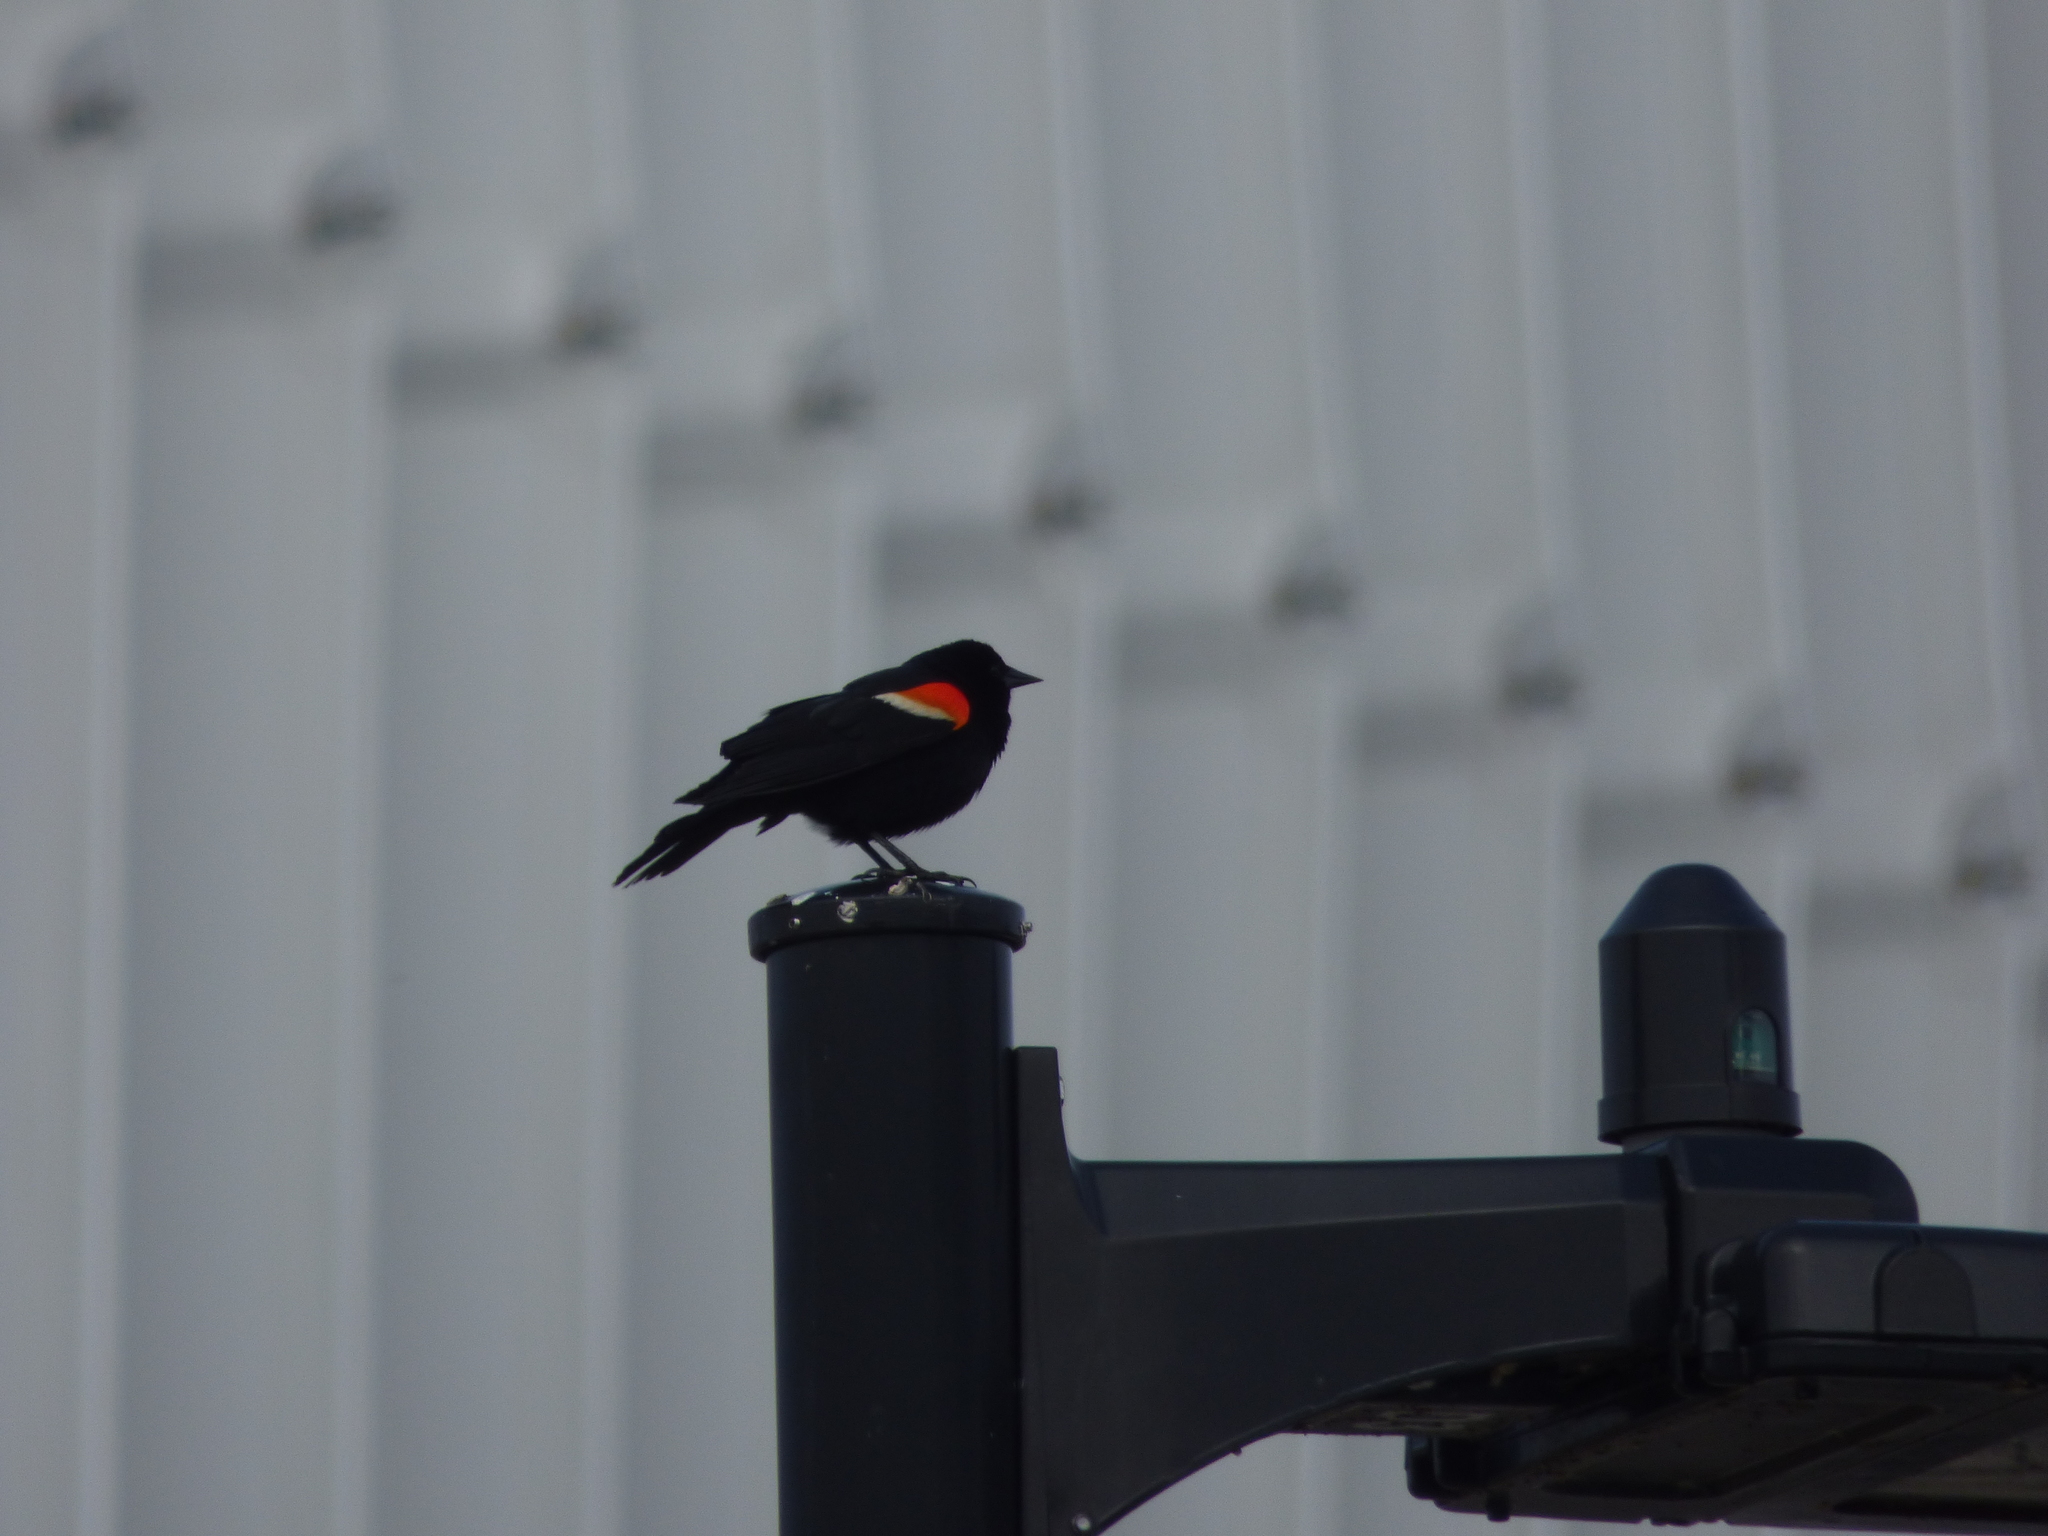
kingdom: Animalia
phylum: Chordata
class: Aves
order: Passeriformes
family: Icteridae
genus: Agelaius
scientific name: Agelaius phoeniceus
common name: Red-winged blackbird
